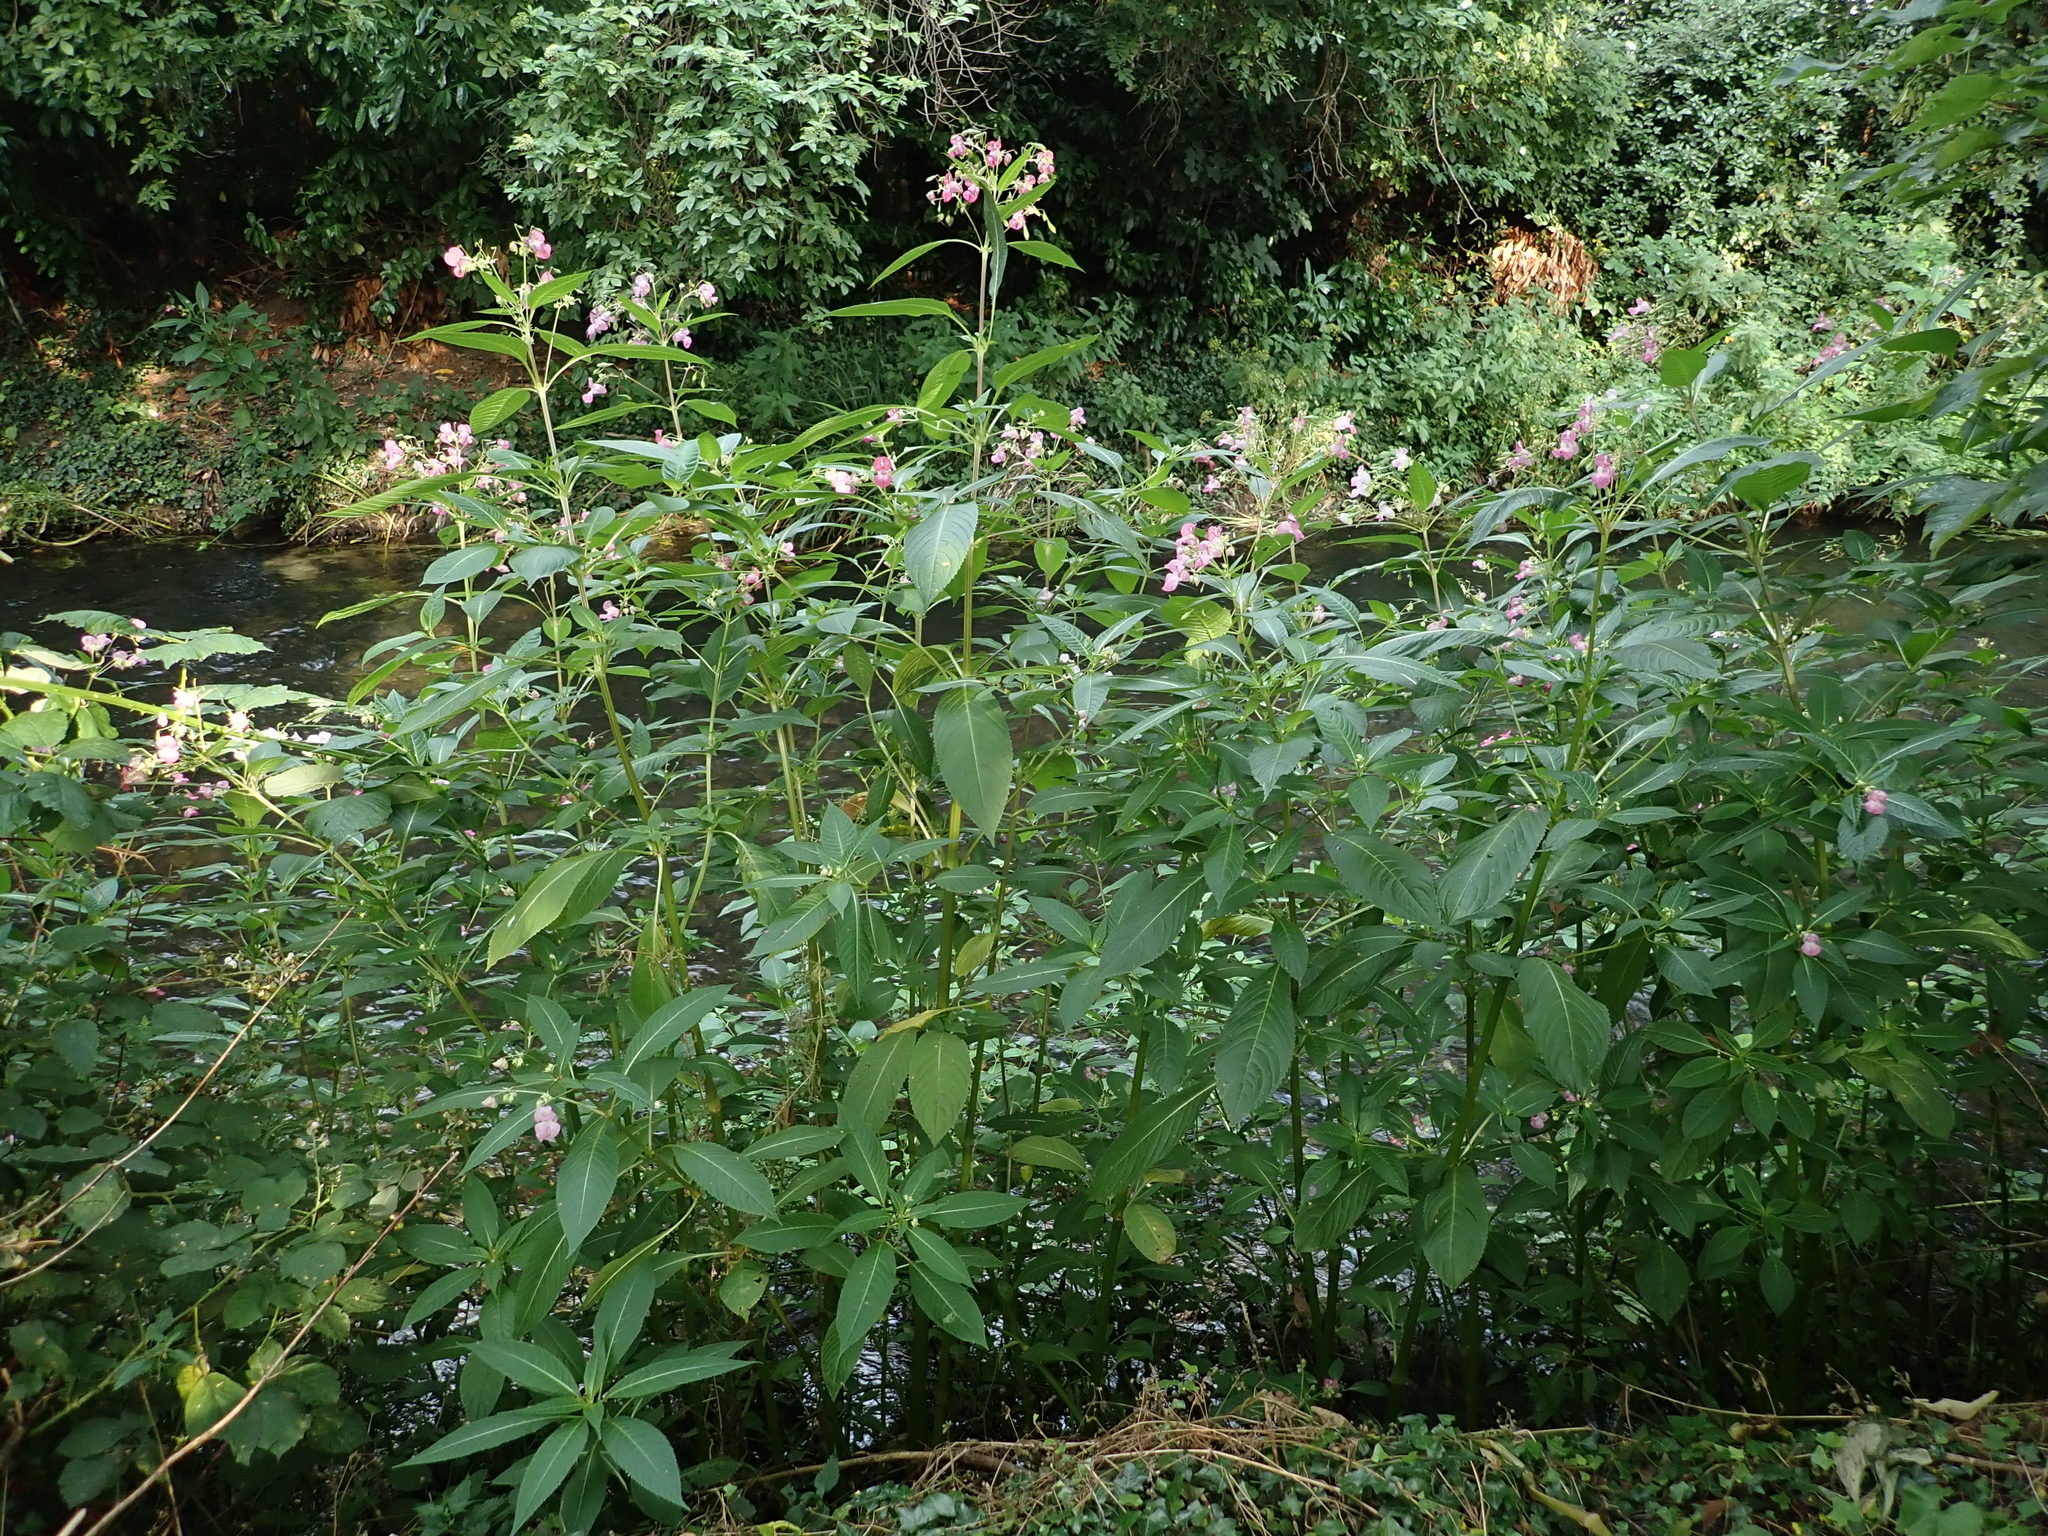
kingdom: Plantae
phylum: Tracheophyta
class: Magnoliopsida
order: Ericales
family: Balsaminaceae
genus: Impatiens
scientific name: Impatiens glandulifera
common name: Himalayan balsam
